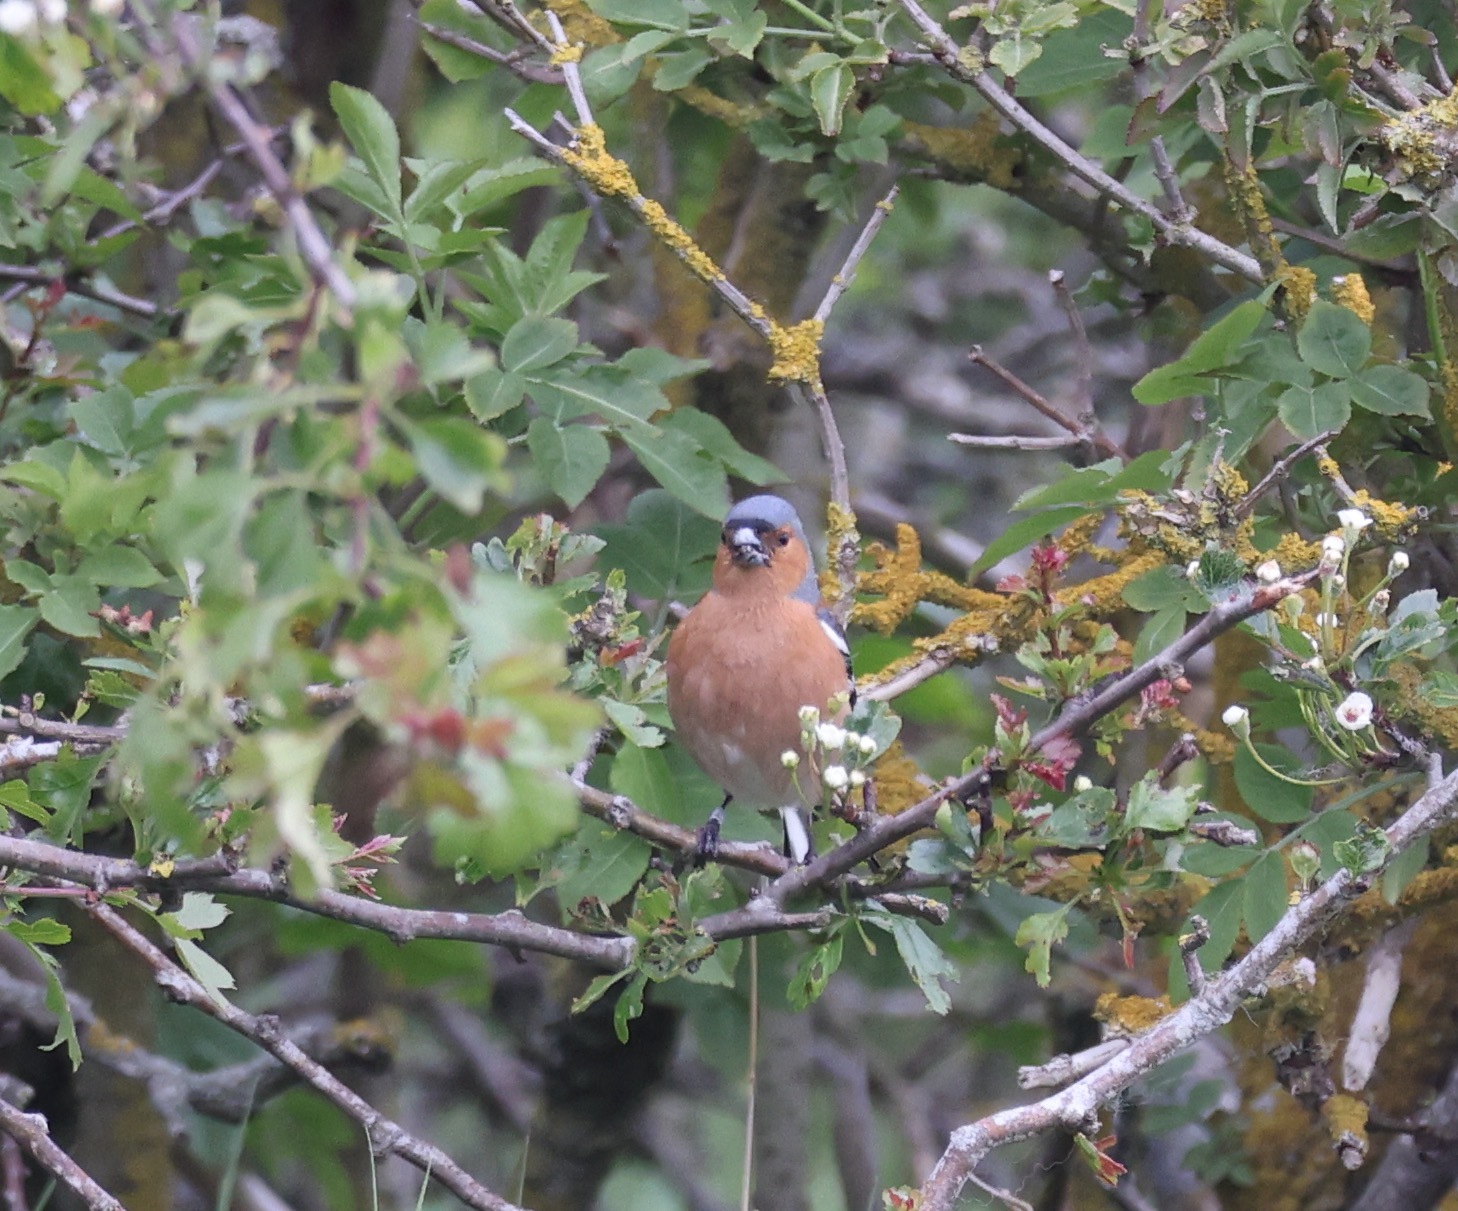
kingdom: Animalia
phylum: Chordata
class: Aves
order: Passeriformes
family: Fringillidae
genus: Fringilla
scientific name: Fringilla coelebs
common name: Common chaffinch
